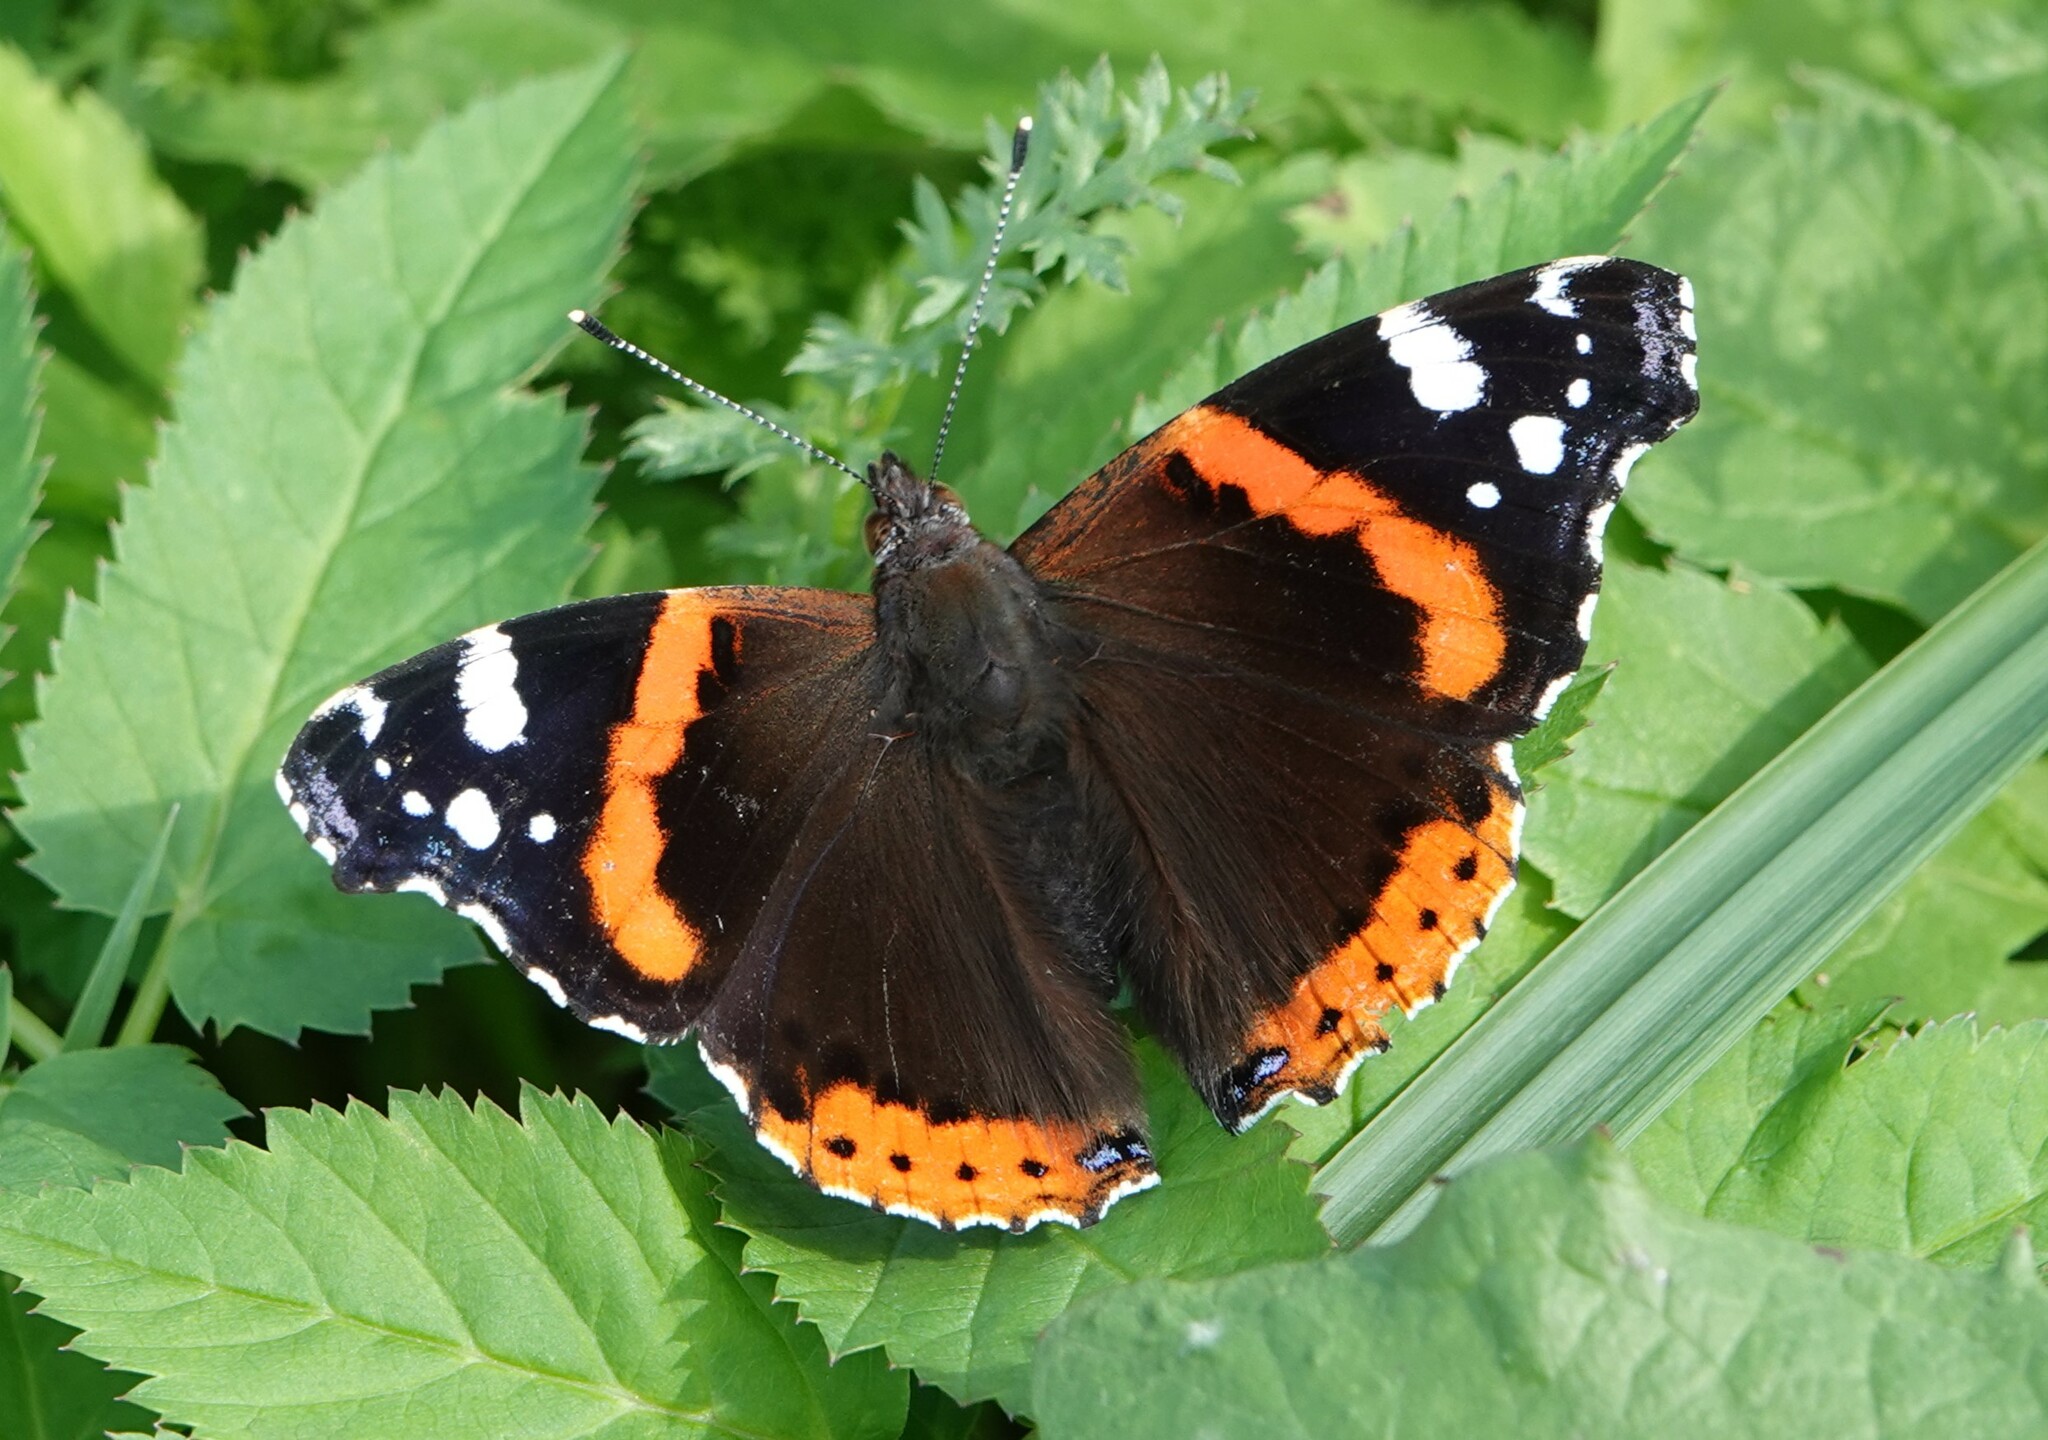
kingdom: Animalia
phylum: Arthropoda
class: Insecta
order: Lepidoptera
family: Nymphalidae
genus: Vanessa
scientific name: Vanessa atalanta
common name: Red admiral
